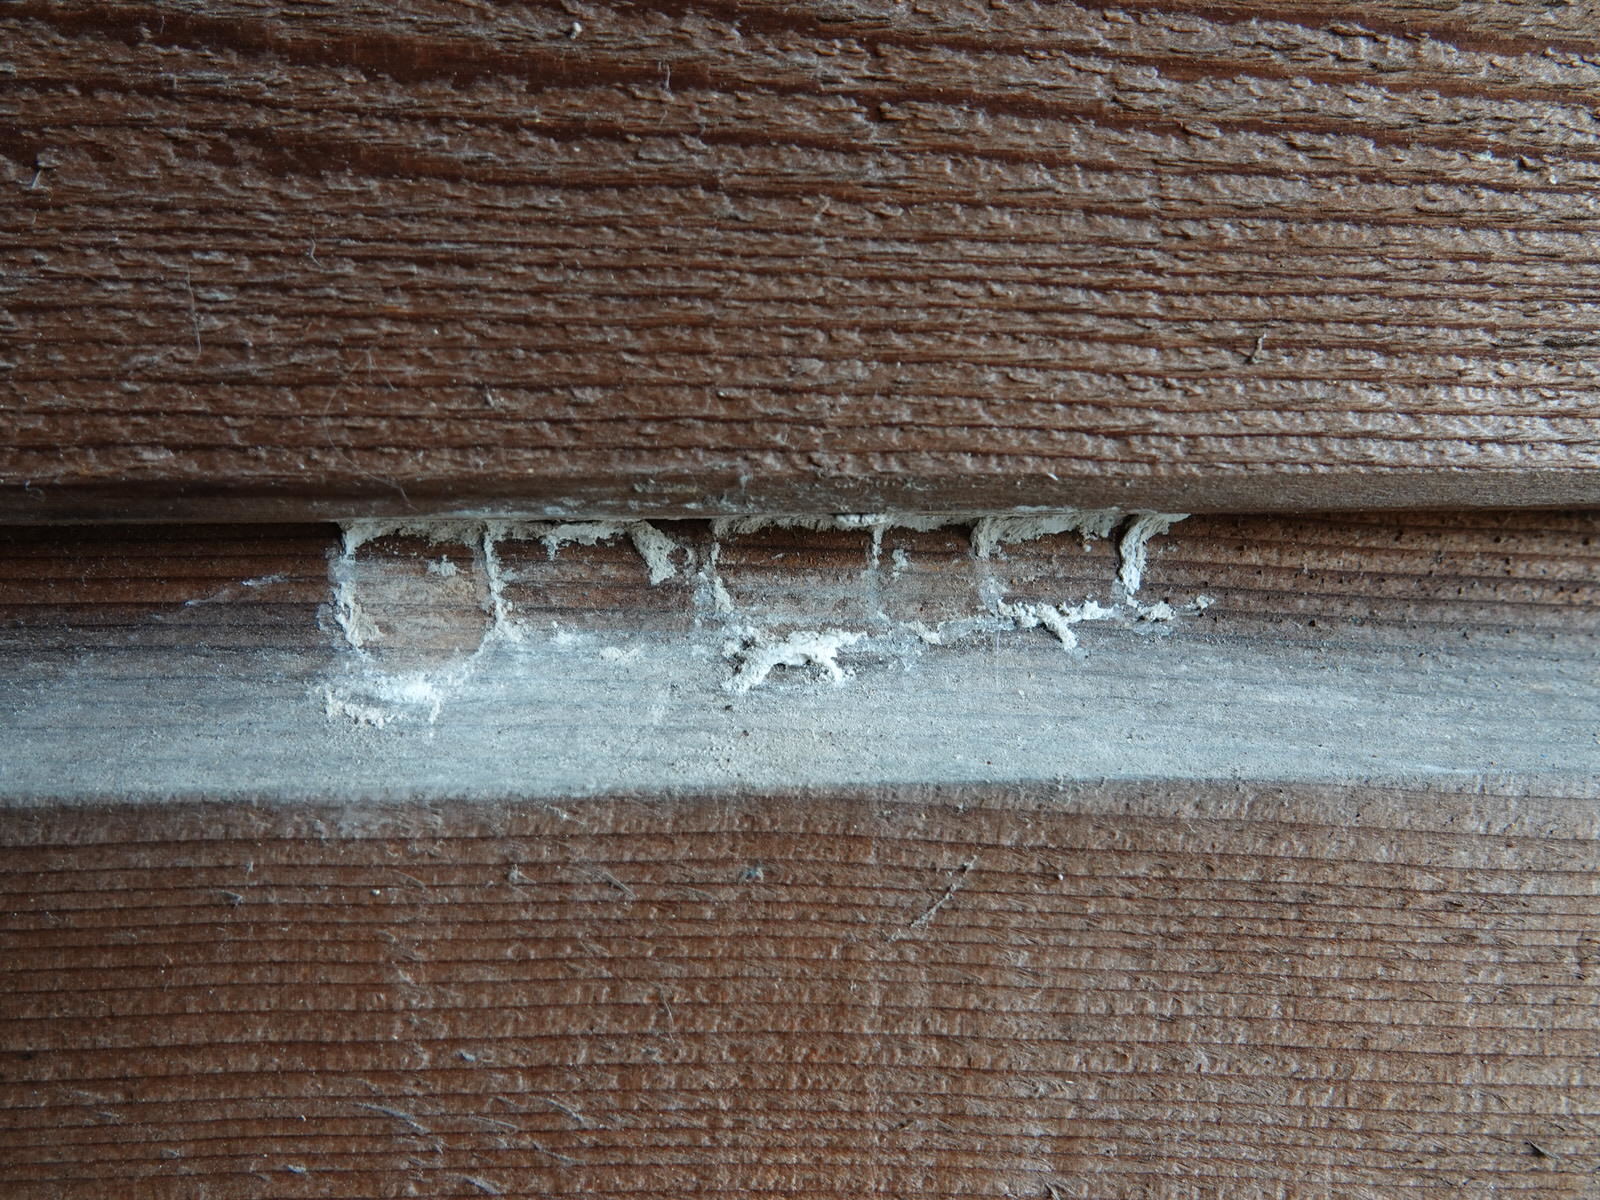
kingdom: Animalia
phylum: Arthropoda
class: Insecta
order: Hymenoptera
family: Crabronidae
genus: Pison
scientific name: Pison spinolae
